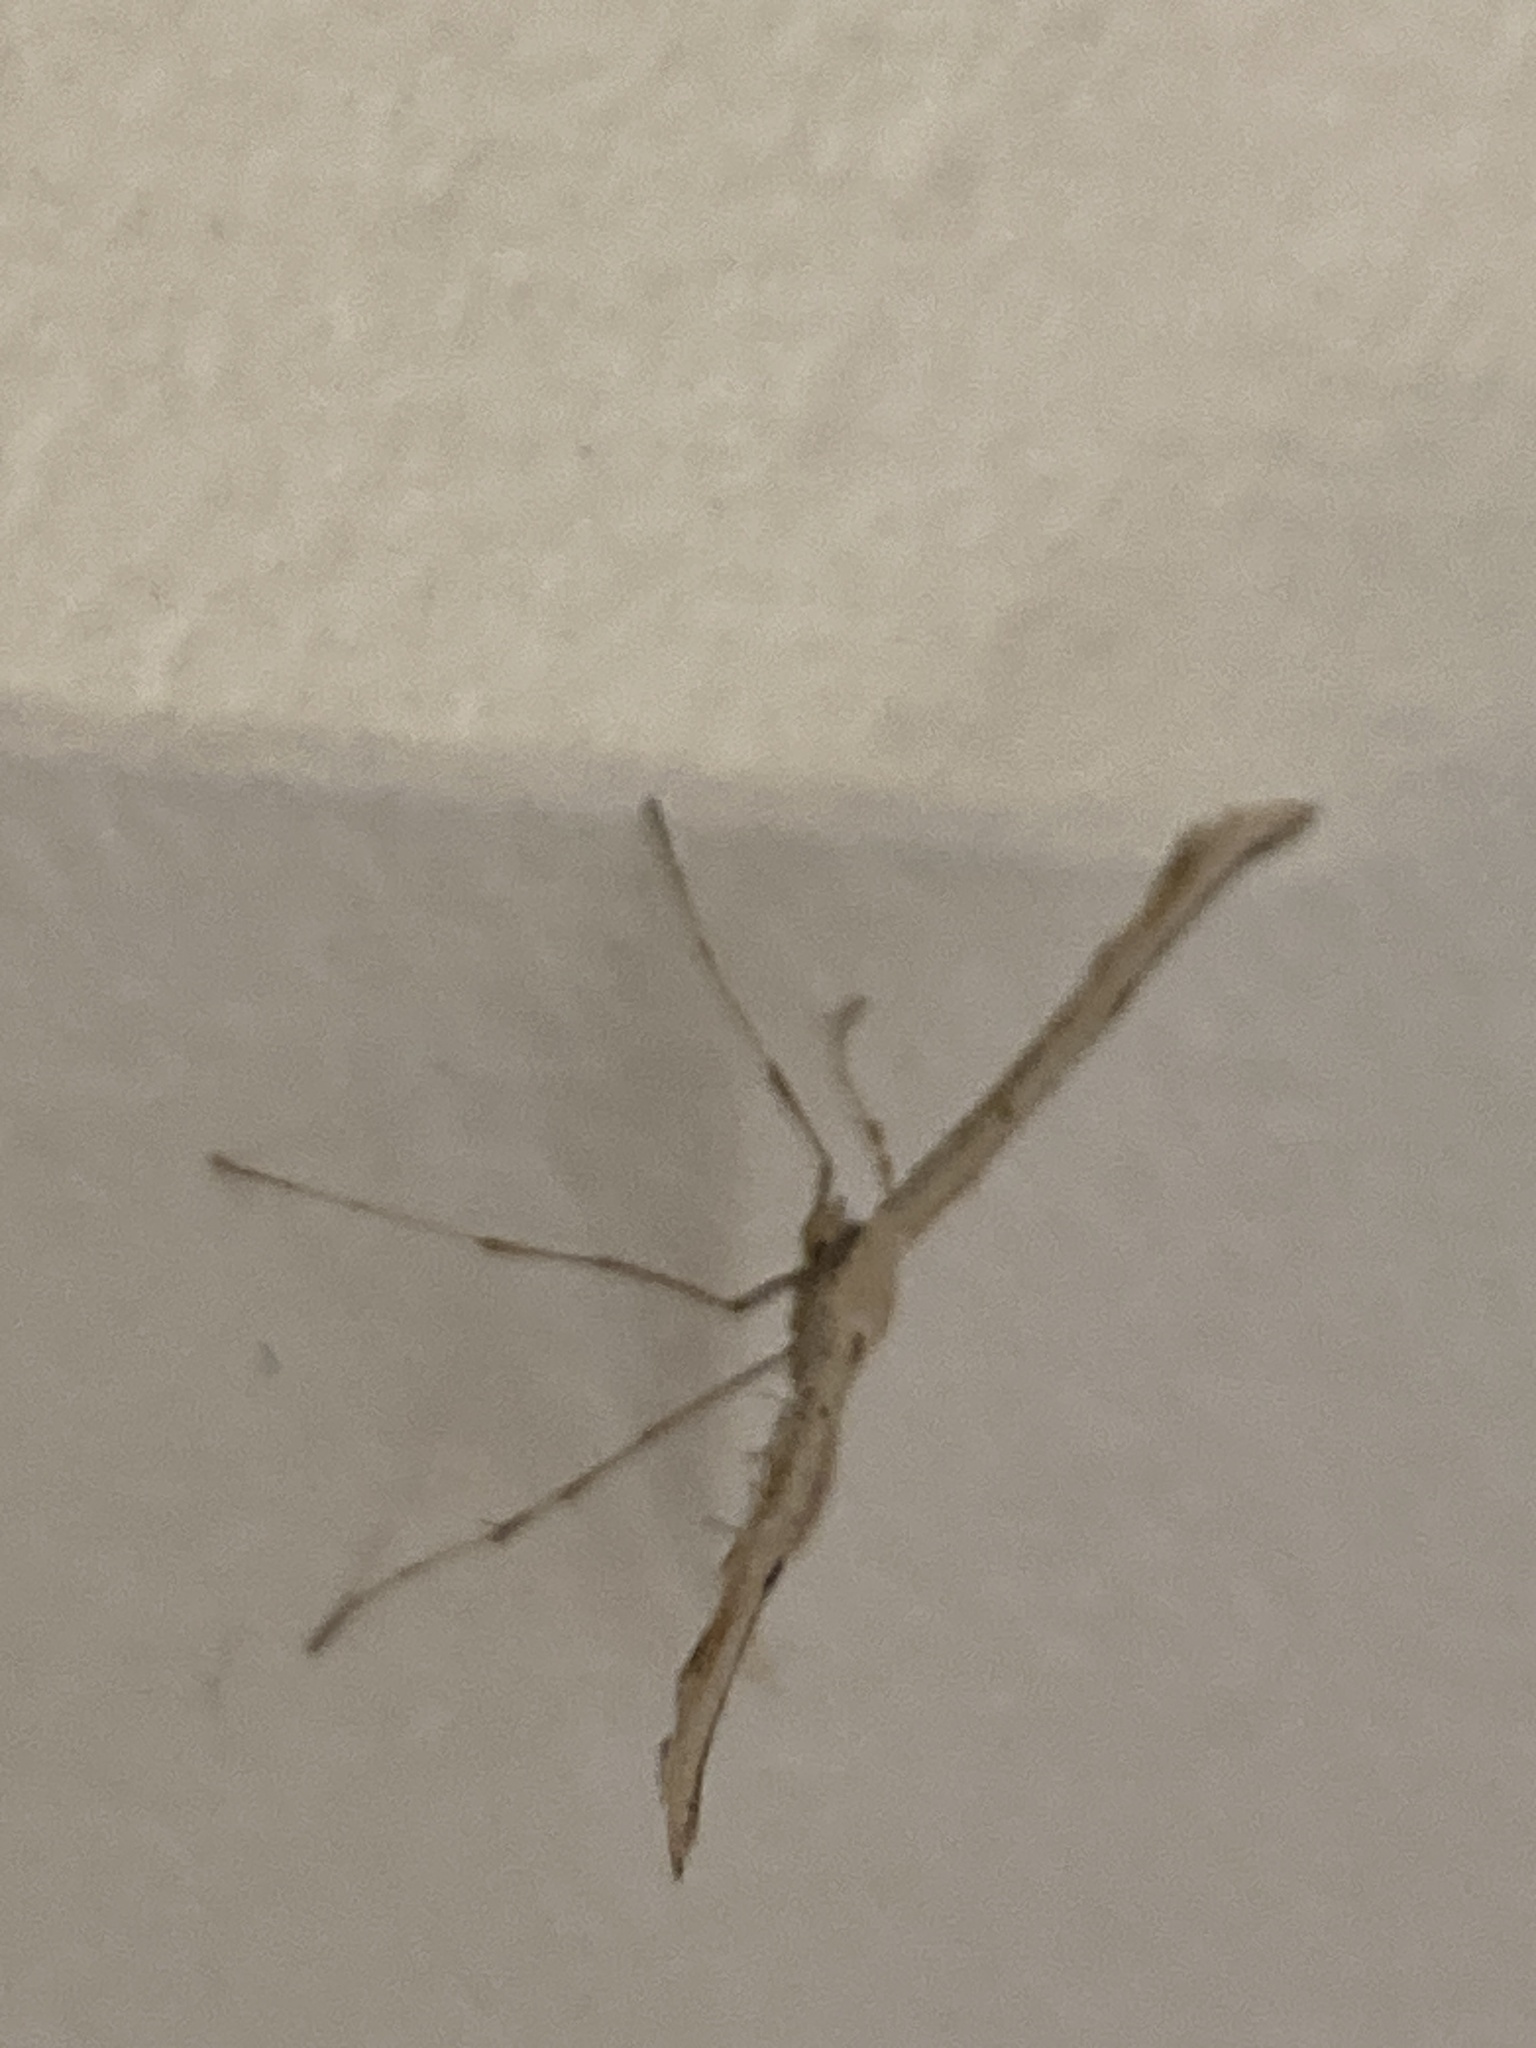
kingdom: Animalia
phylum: Arthropoda
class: Insecta
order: Lepidoptera
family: Pterophoridae
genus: Emmelina
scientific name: Emmelina monodactyla
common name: Common plume
